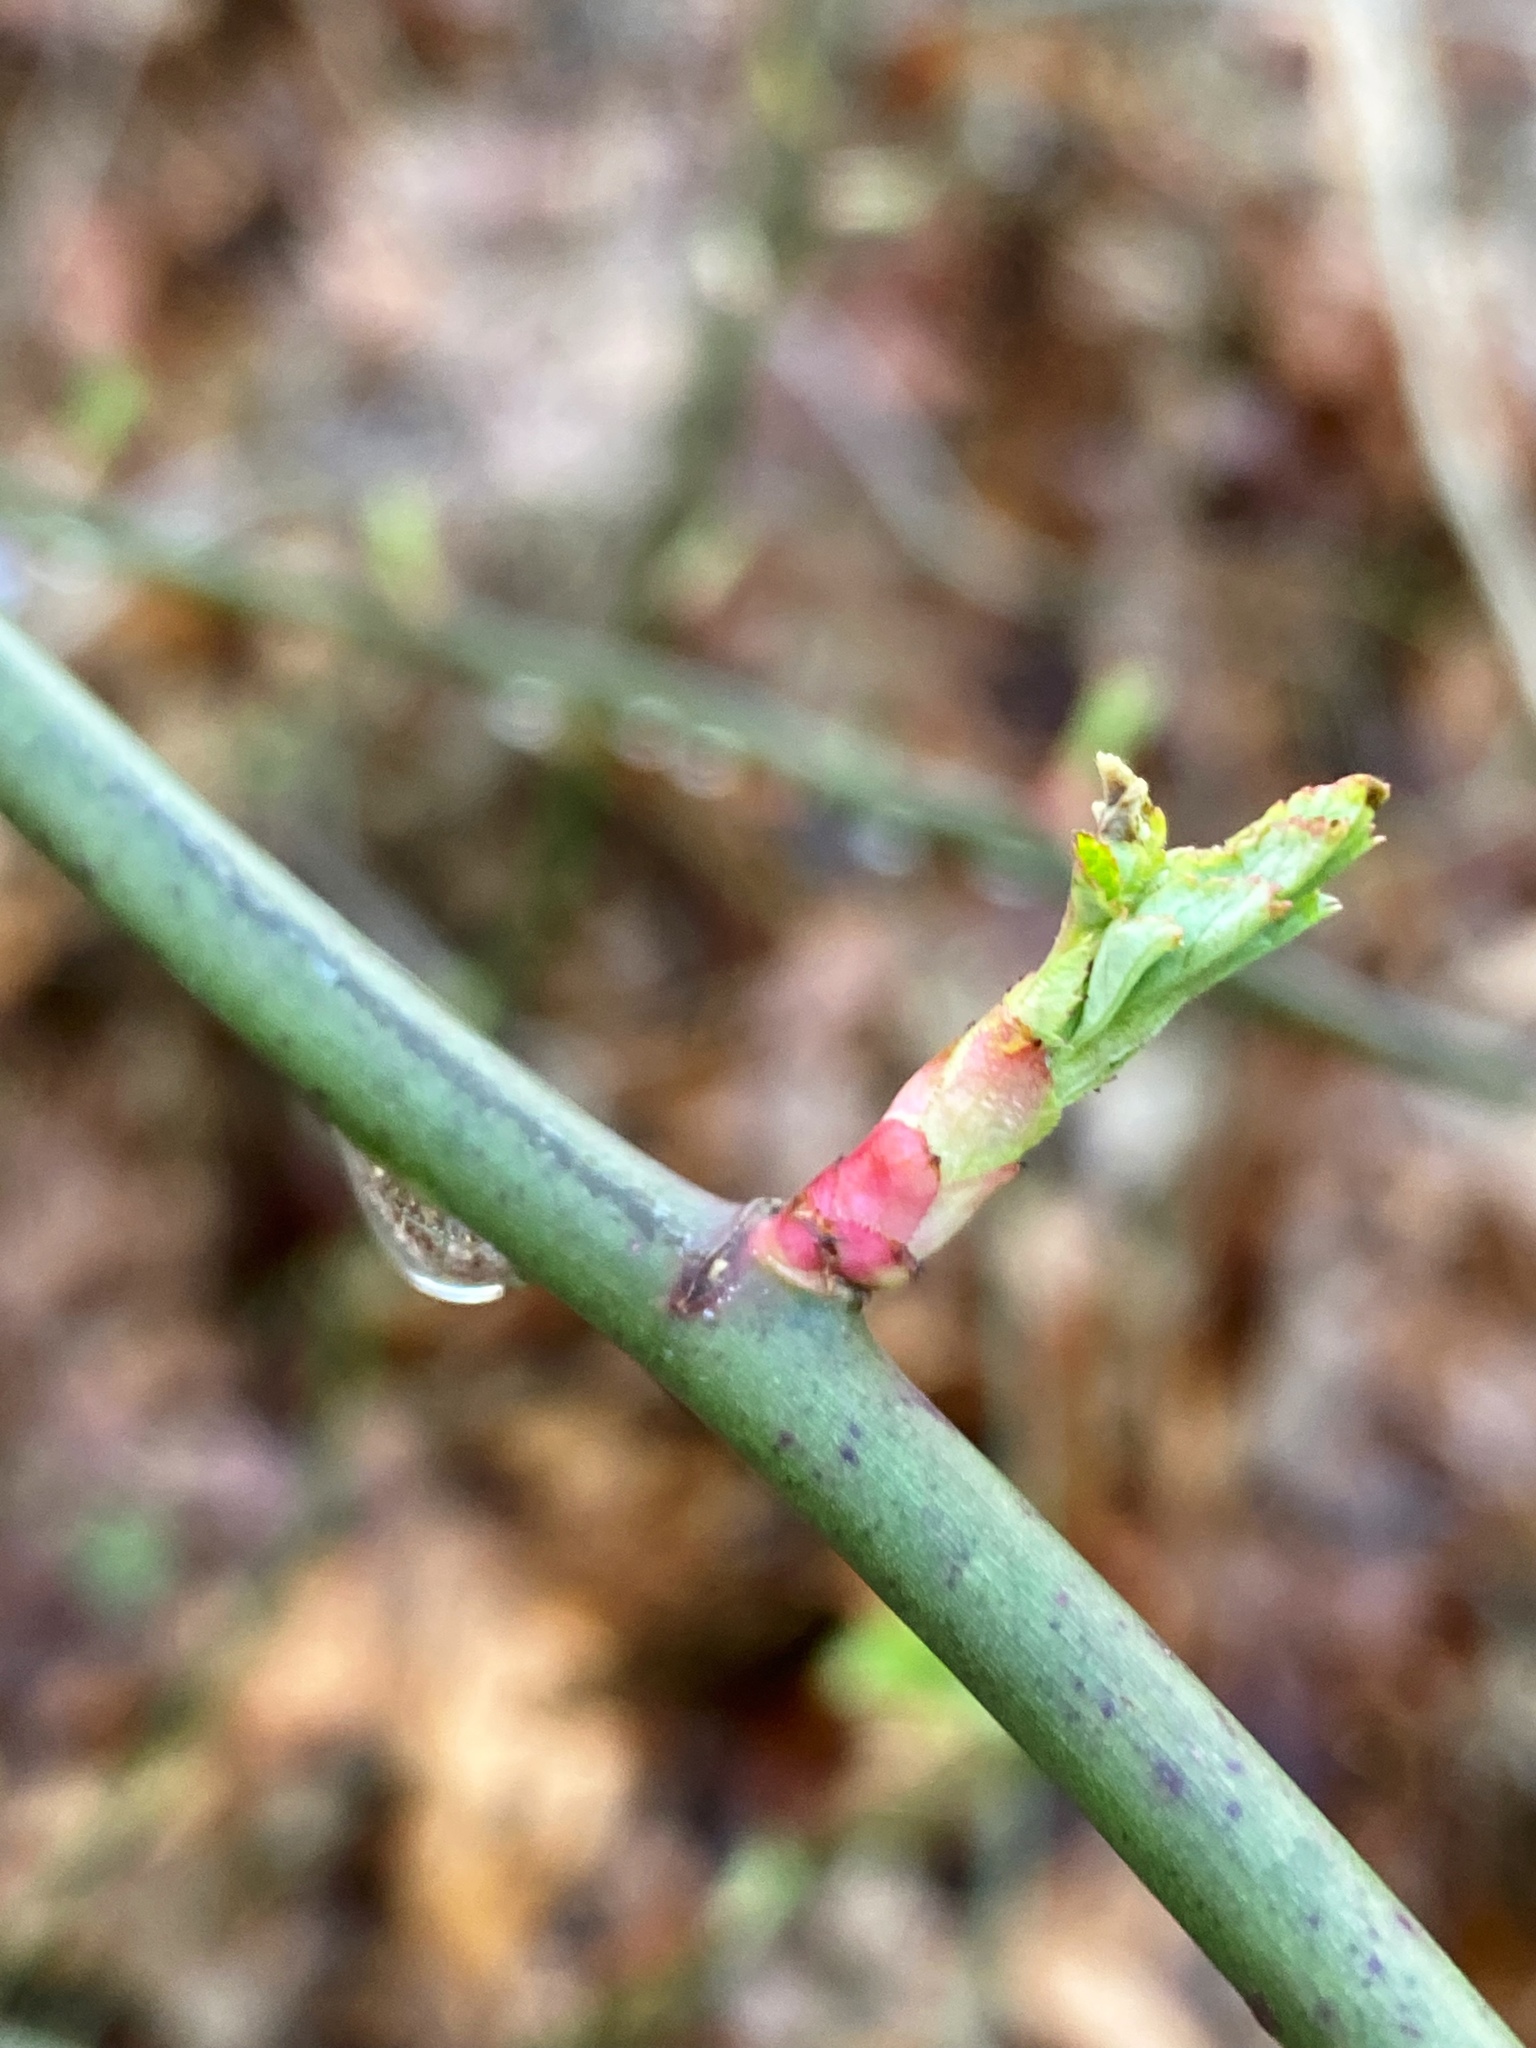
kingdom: Plantae
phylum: Tracheophyta
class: Magnoliopsida
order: Rosales
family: Rosaceae
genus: Rosa
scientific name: Rosa multiflora
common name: Multiflora rose
